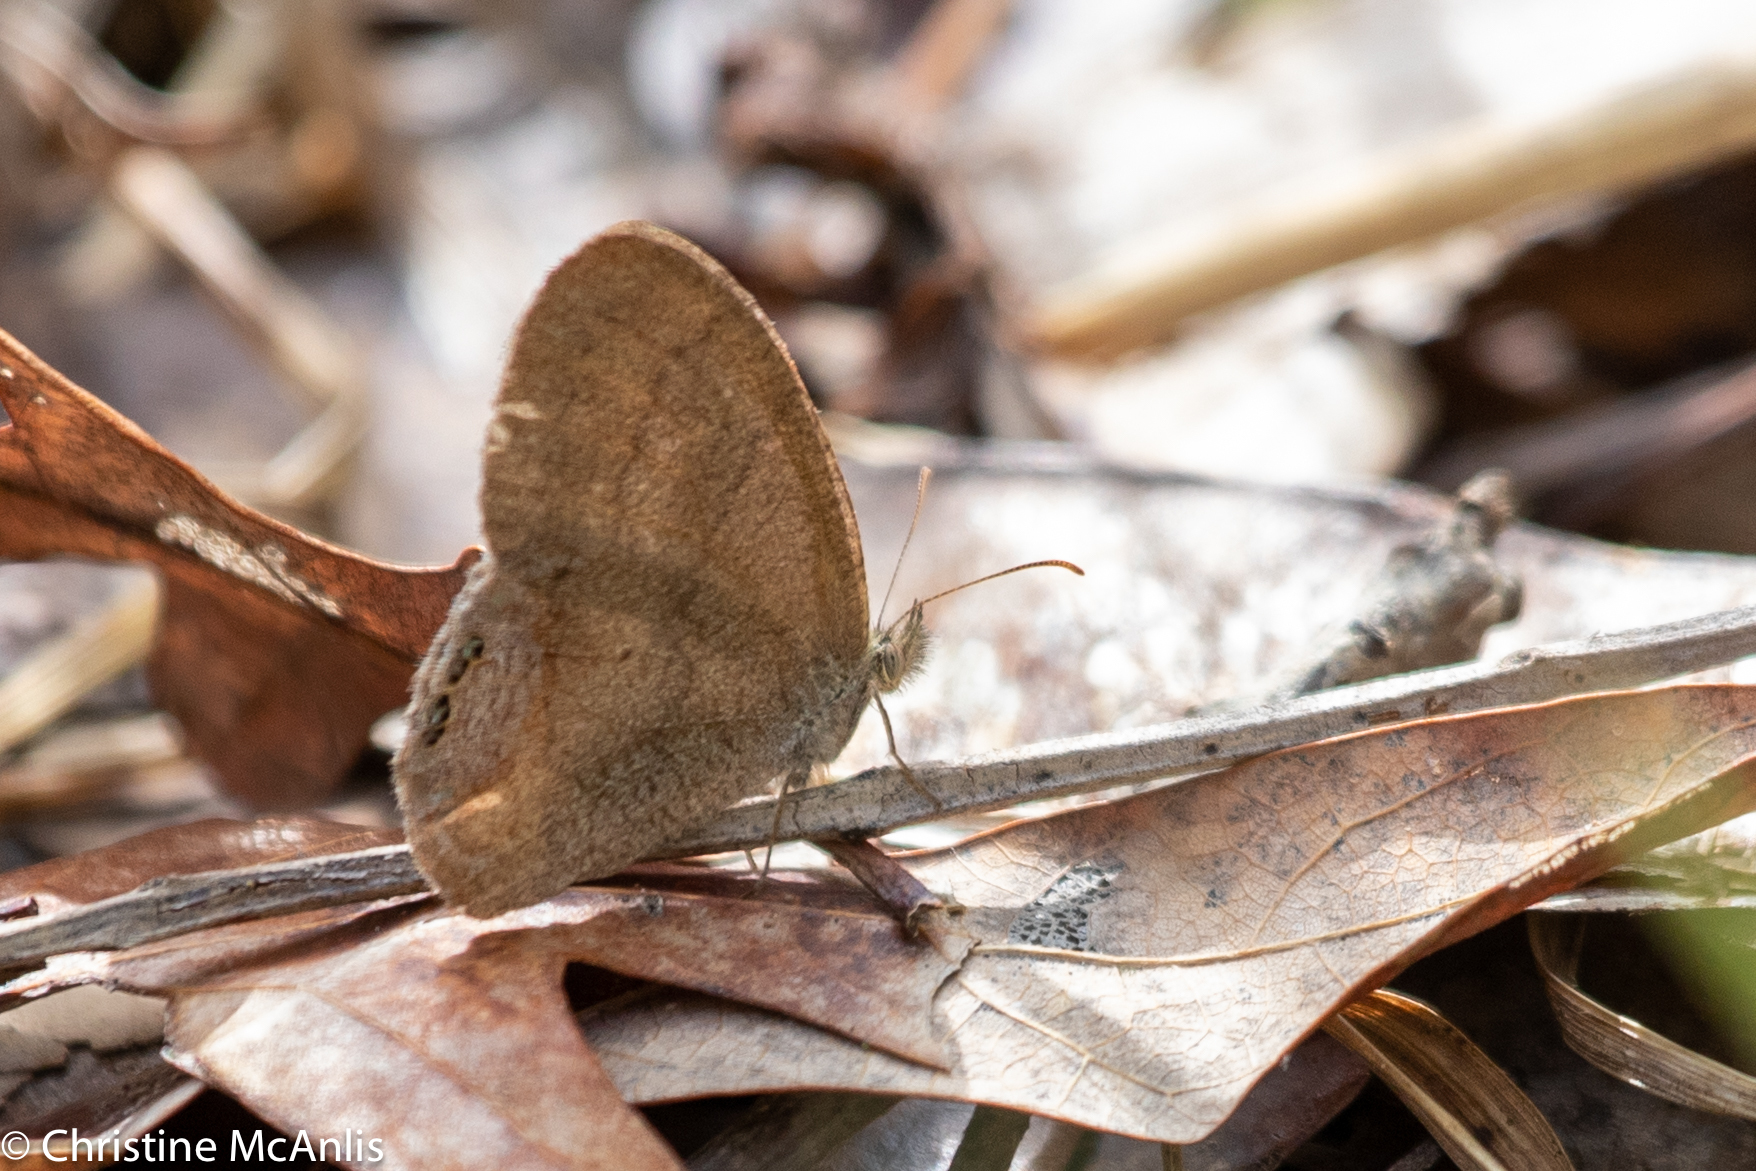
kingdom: Animalia
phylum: Arthropoda
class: Insecta
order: Lepidoptera
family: Nymphalidae
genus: Euptychia
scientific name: Euptychia cornelius
